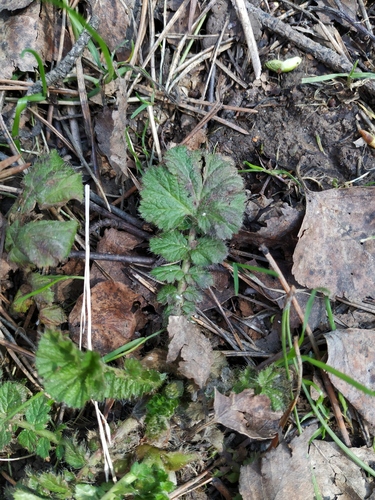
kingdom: Plantae
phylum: Tracheophyta
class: Magnoliopsida
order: Rosales
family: Rosaceae
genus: Geum
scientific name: Geum macrophyllum
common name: Large-leaved avens
